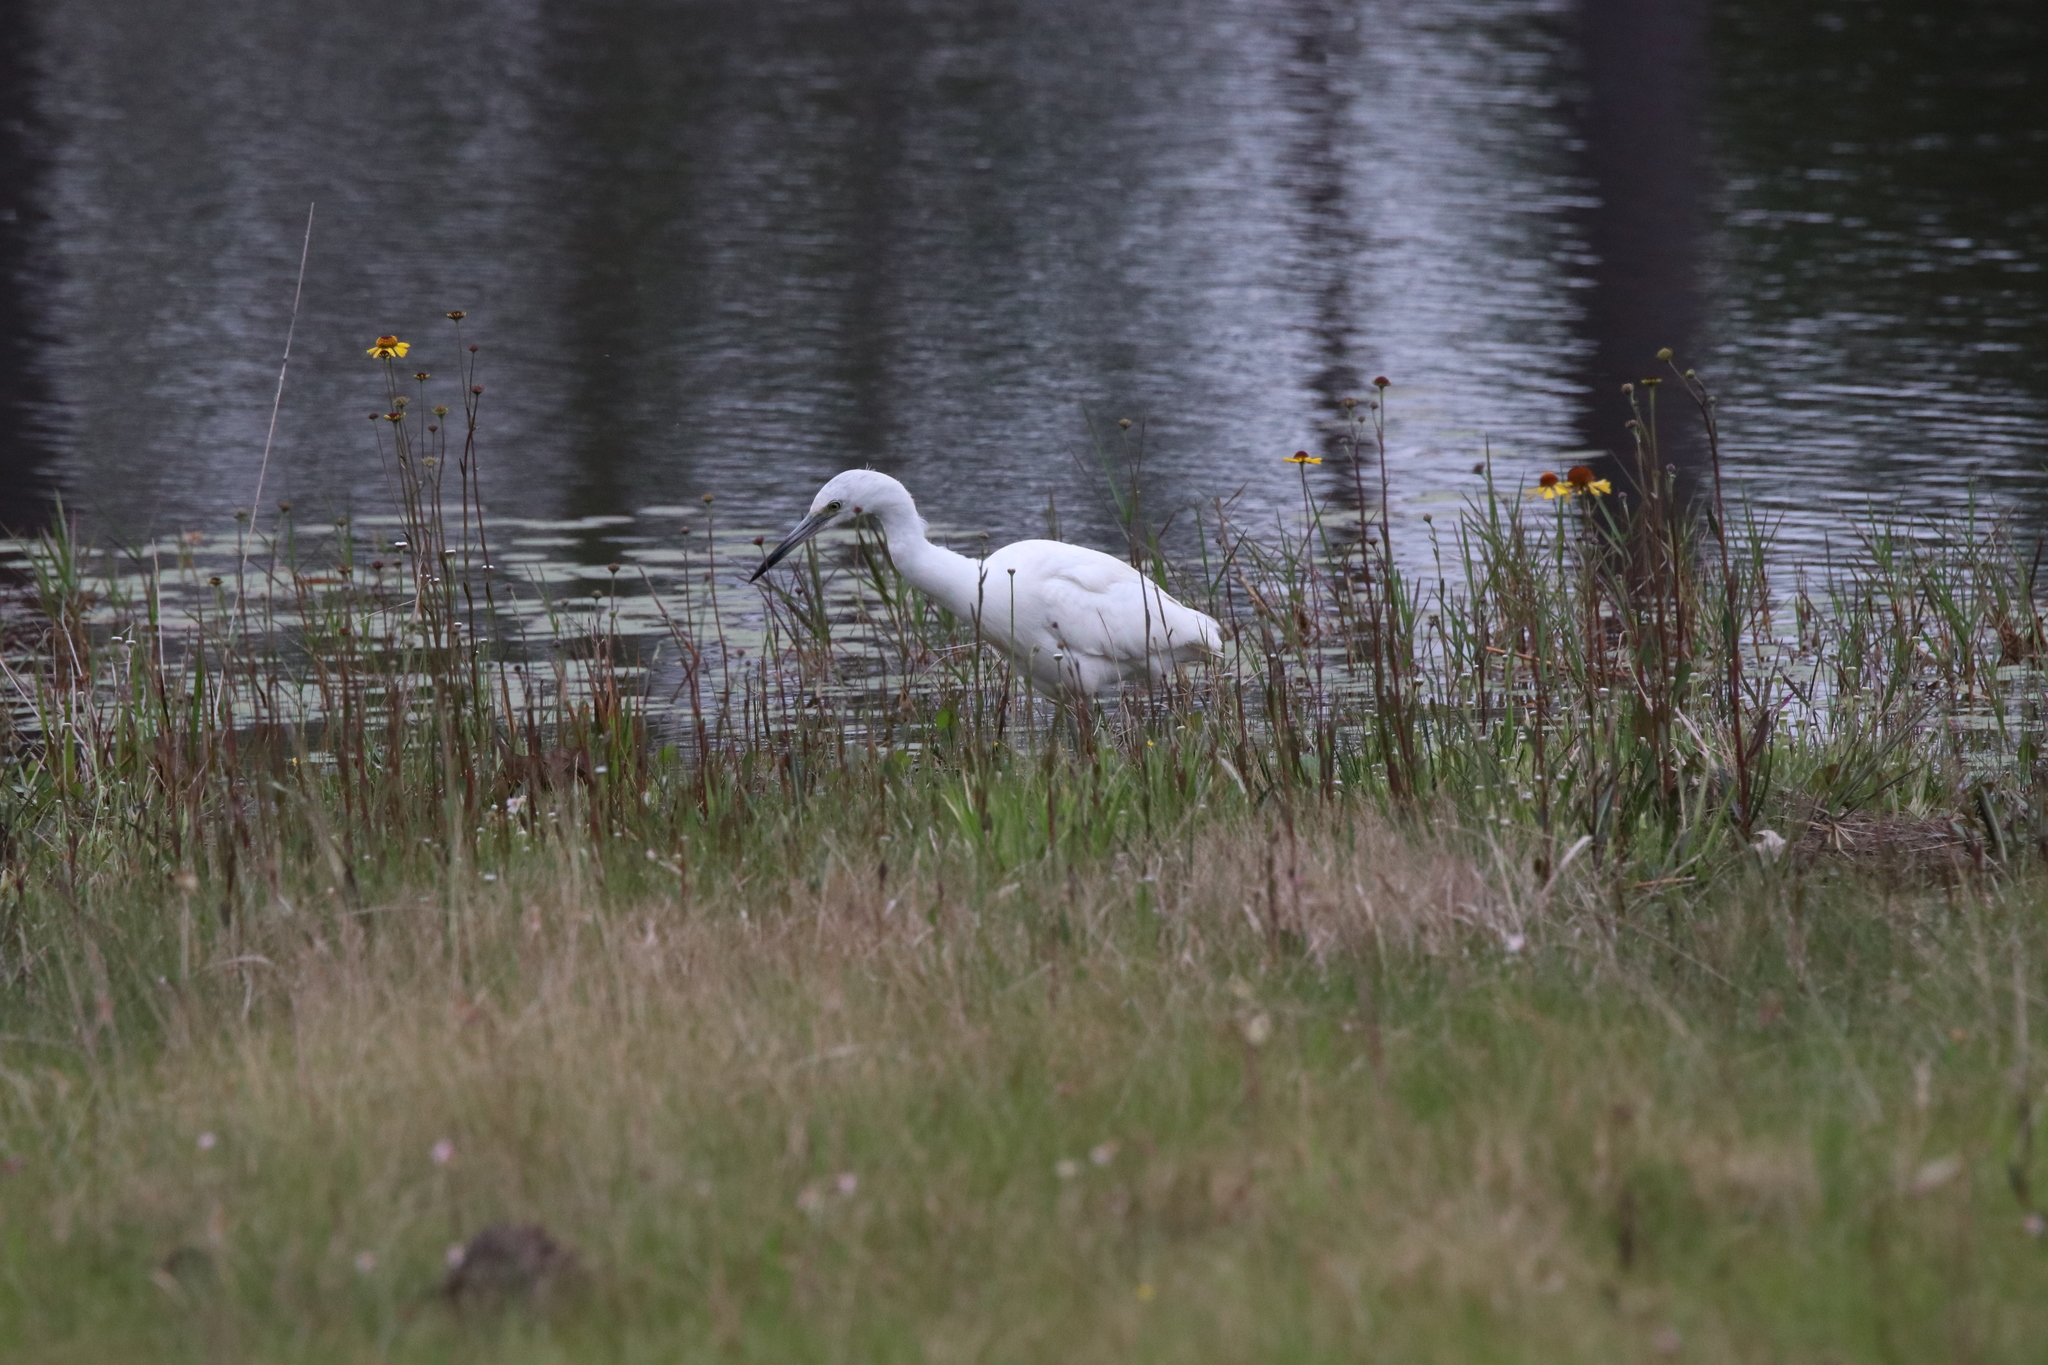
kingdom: Animalia
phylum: Chordata
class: Aves
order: Pelecaniformes
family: Ardeidae
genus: Egretta
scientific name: Egretta caerulea
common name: Little blue heron
